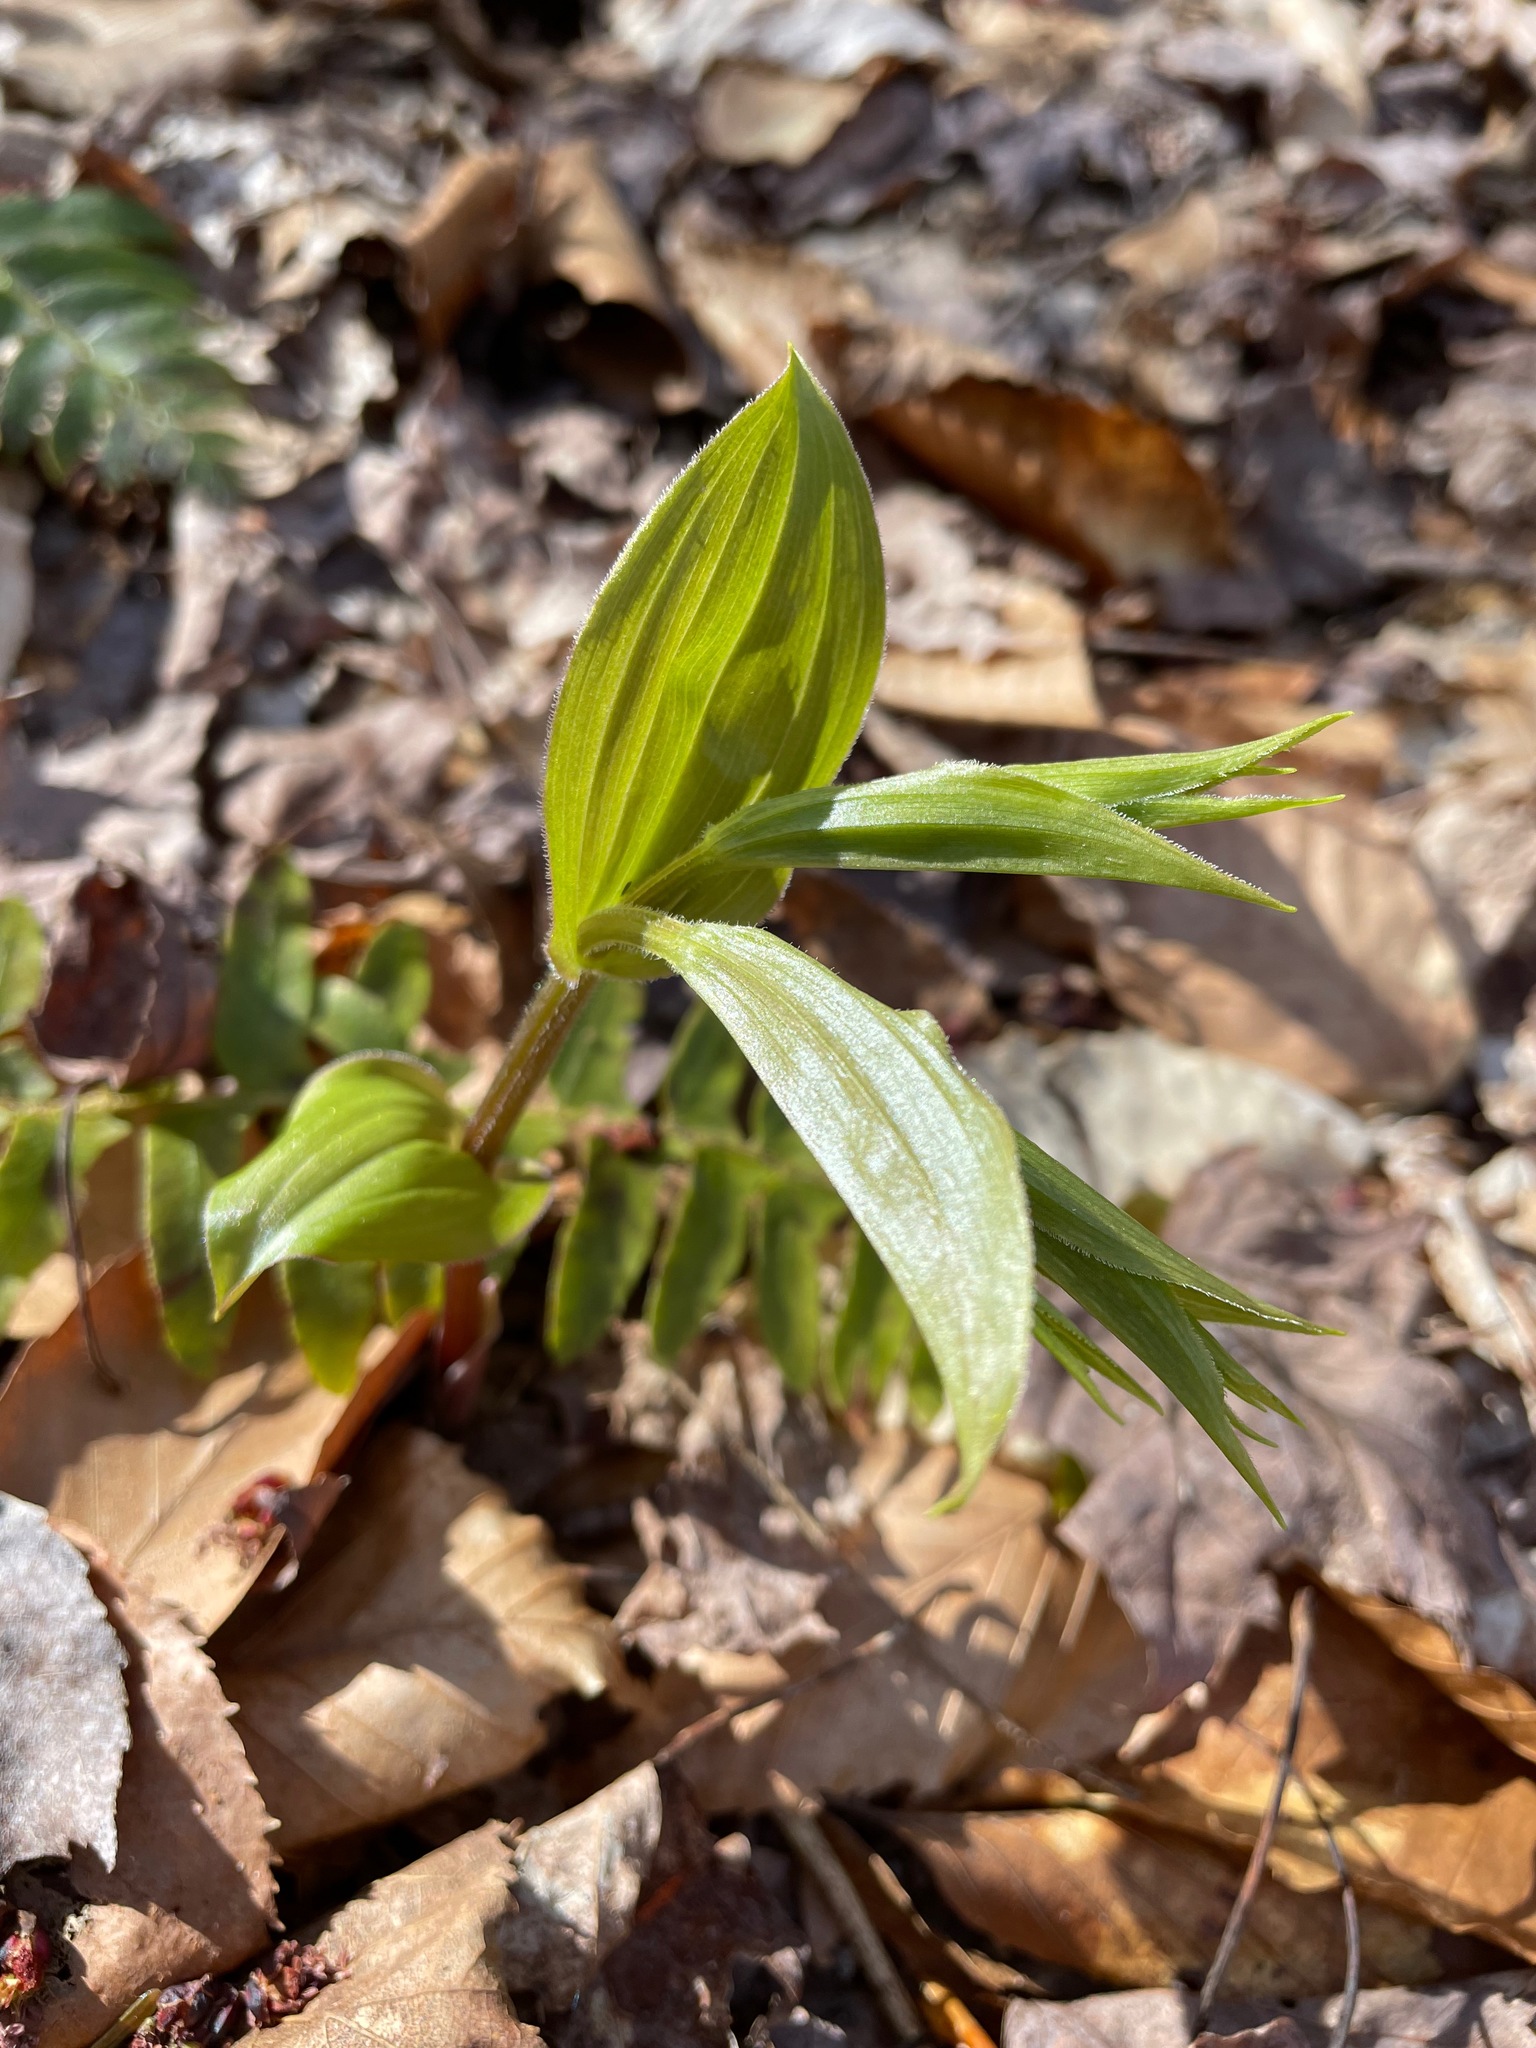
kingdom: Plantae
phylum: Tracheophyta
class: Liliopsida
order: Liliales
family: Liliaceae
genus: Streptopus
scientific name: Streptopus lanceolatus
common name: Rose mandarin
